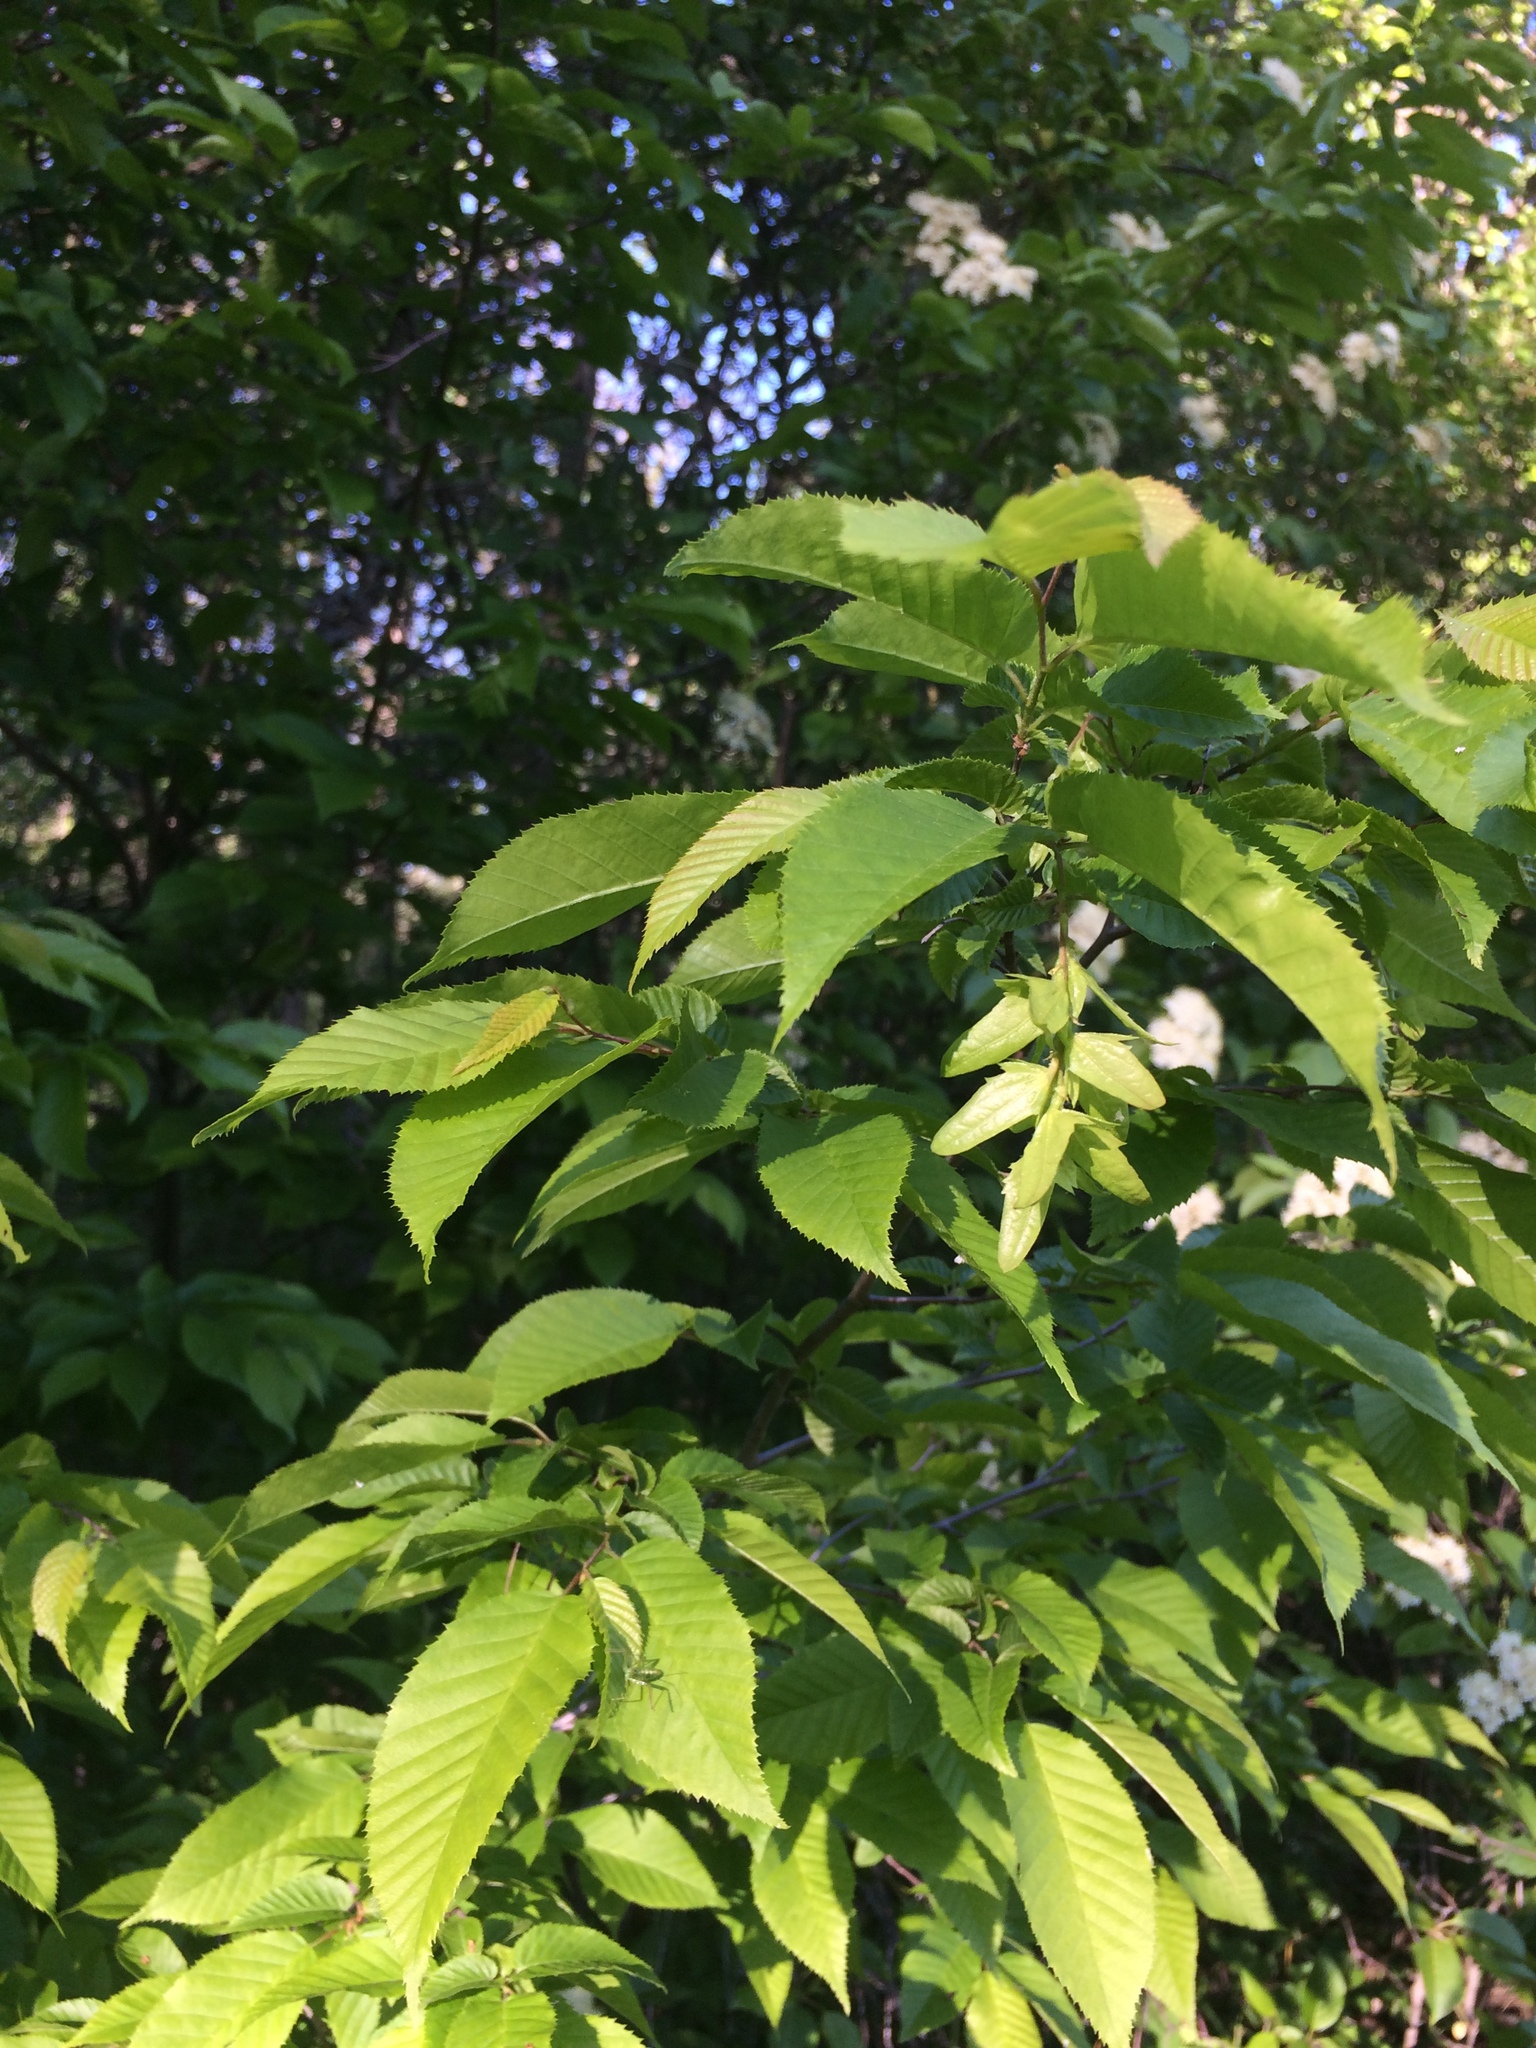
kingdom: Plantae
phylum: Tracheophyta
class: Magnoliopsida
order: Fagales
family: Betulaceae
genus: Carpinus
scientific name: Carpinus caroliniana
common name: American hornbeam
